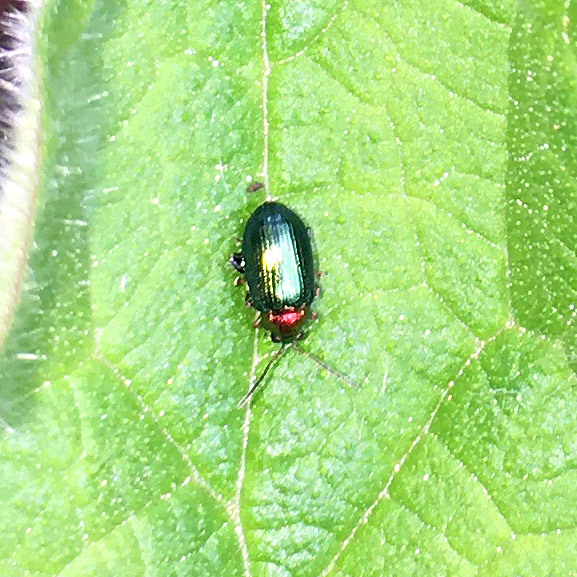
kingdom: Animalia
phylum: Arthropoda
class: Insecta
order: Coleoptera
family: Chrysomelidae
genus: Crepidodera
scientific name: Crepidodera aurata
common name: Willow flea beetle
